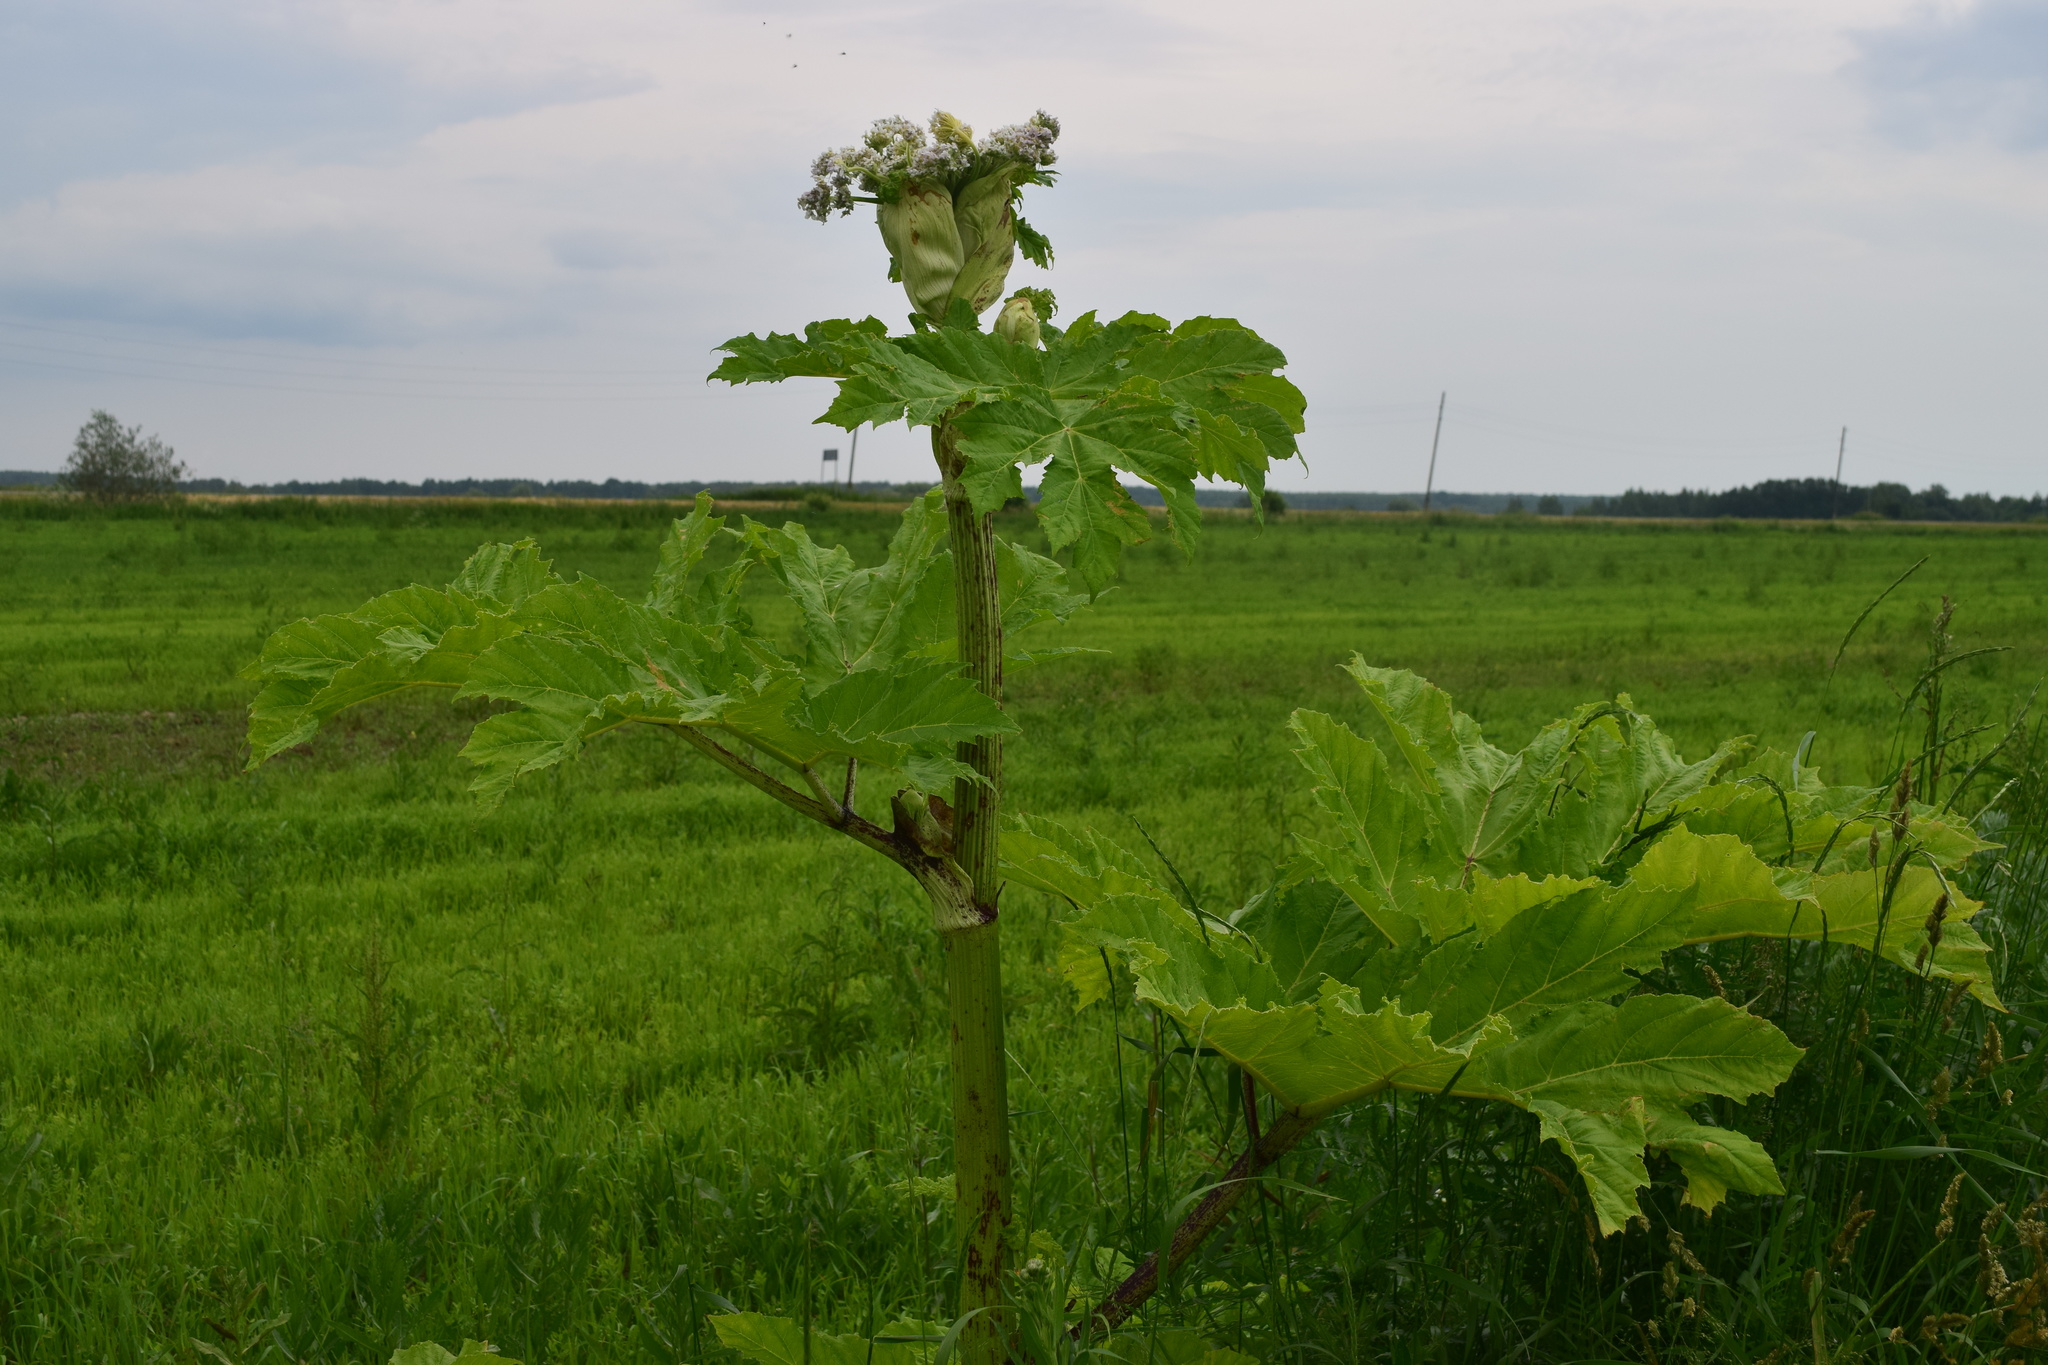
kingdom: Plantae
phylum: Tracheophyta
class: Magnoliopsida
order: Apiales
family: Apiaceae
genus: Heracleum
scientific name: Heracleum sosnowskyi
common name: Sosnowsky's hogweed
